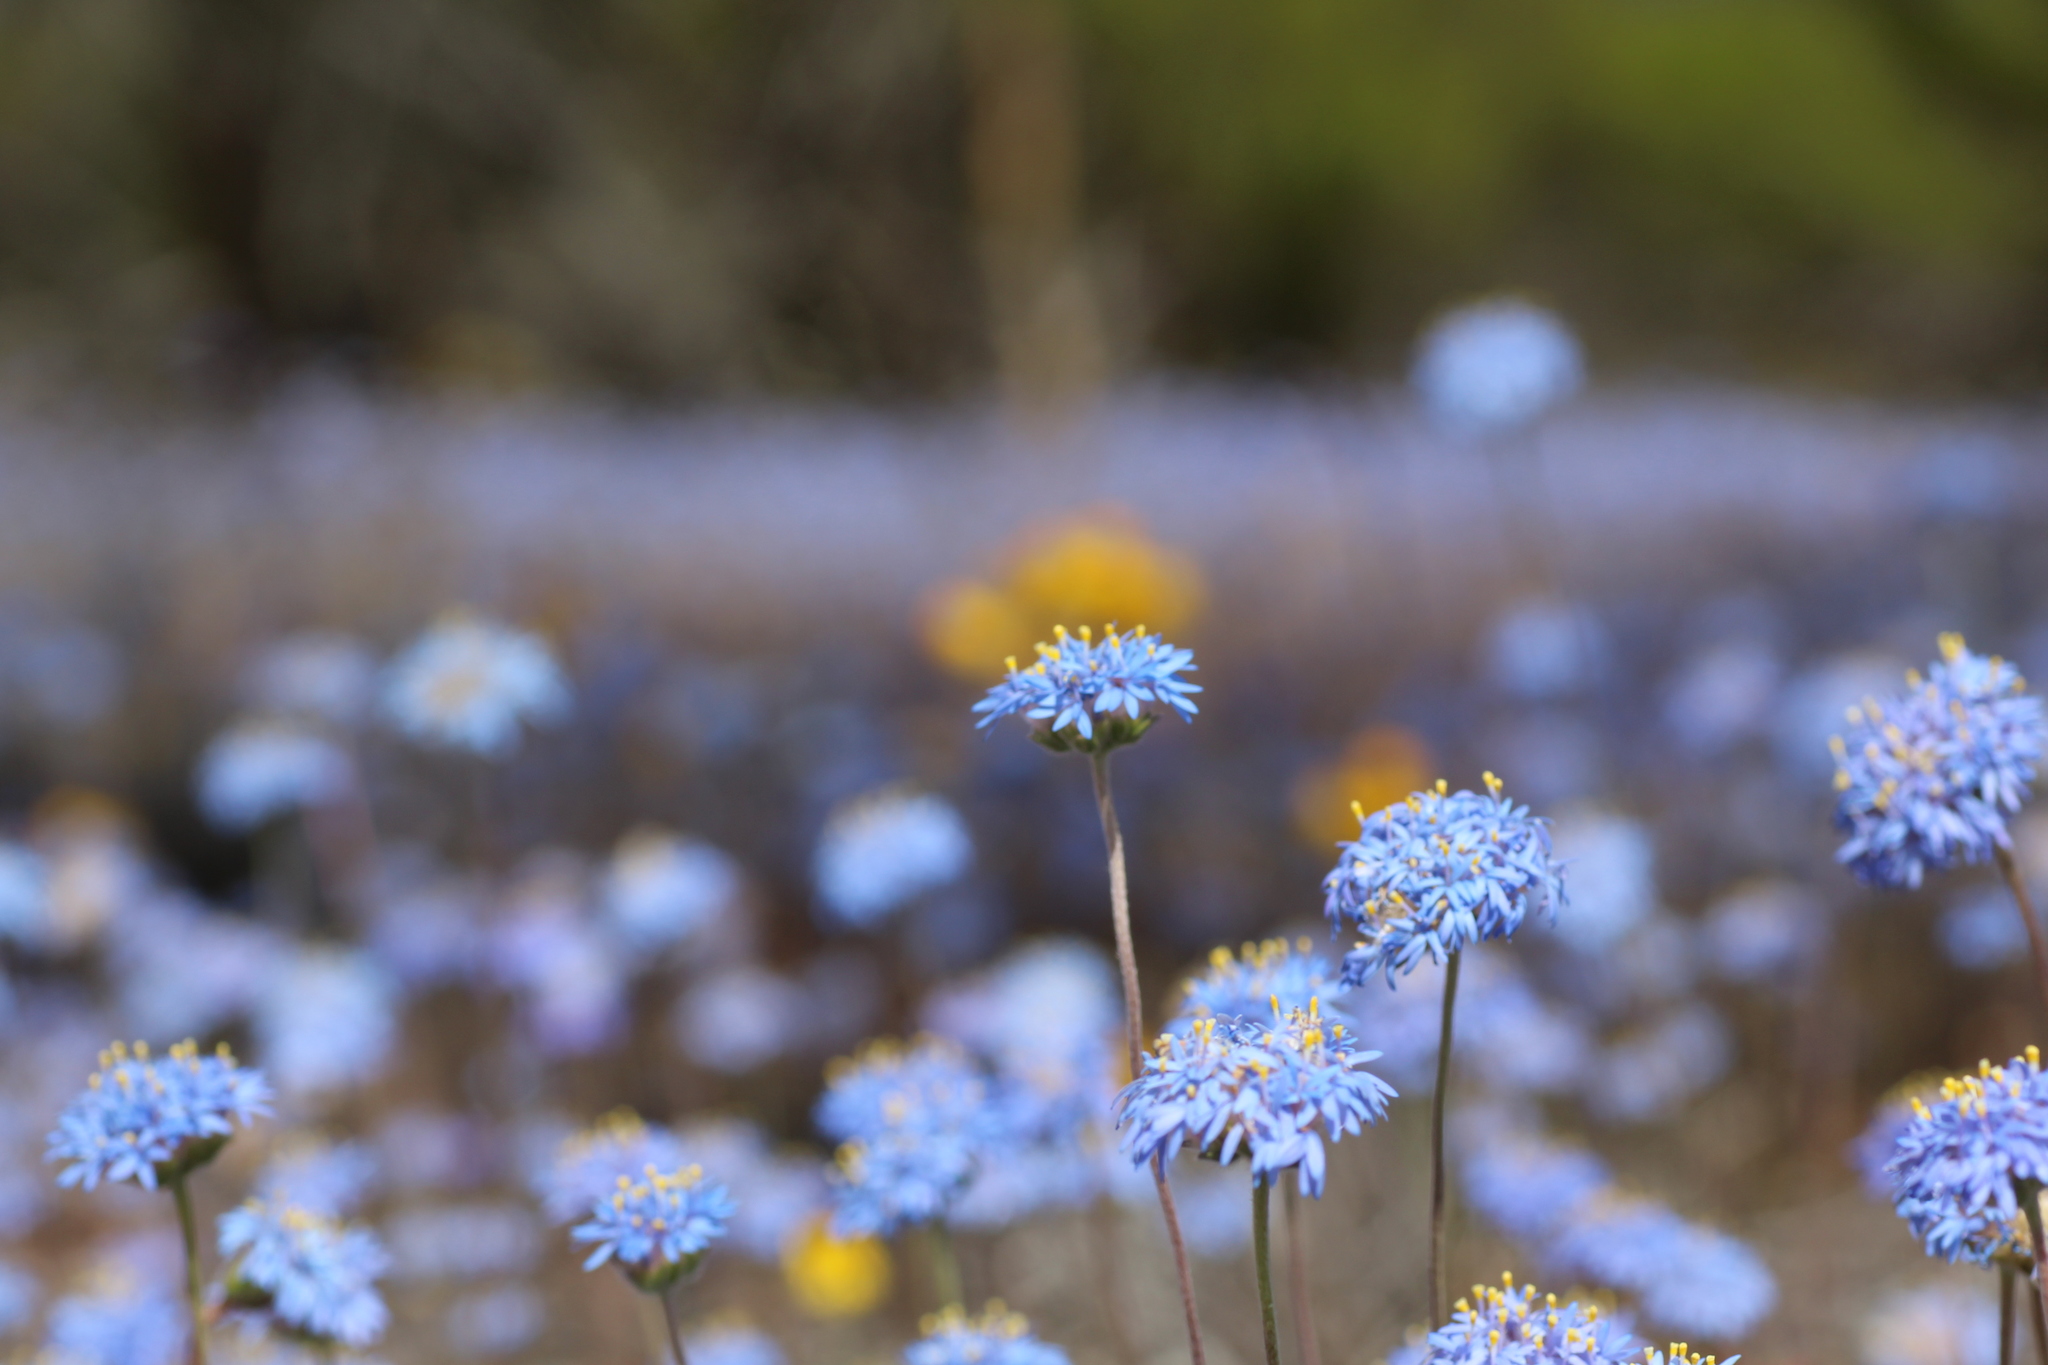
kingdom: Plantae
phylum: Tracheophyta
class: Magnoliopsida
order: Asterales
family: Goodeniaceae
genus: Brunonia
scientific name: Brunonia australis
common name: Blue pincushion
